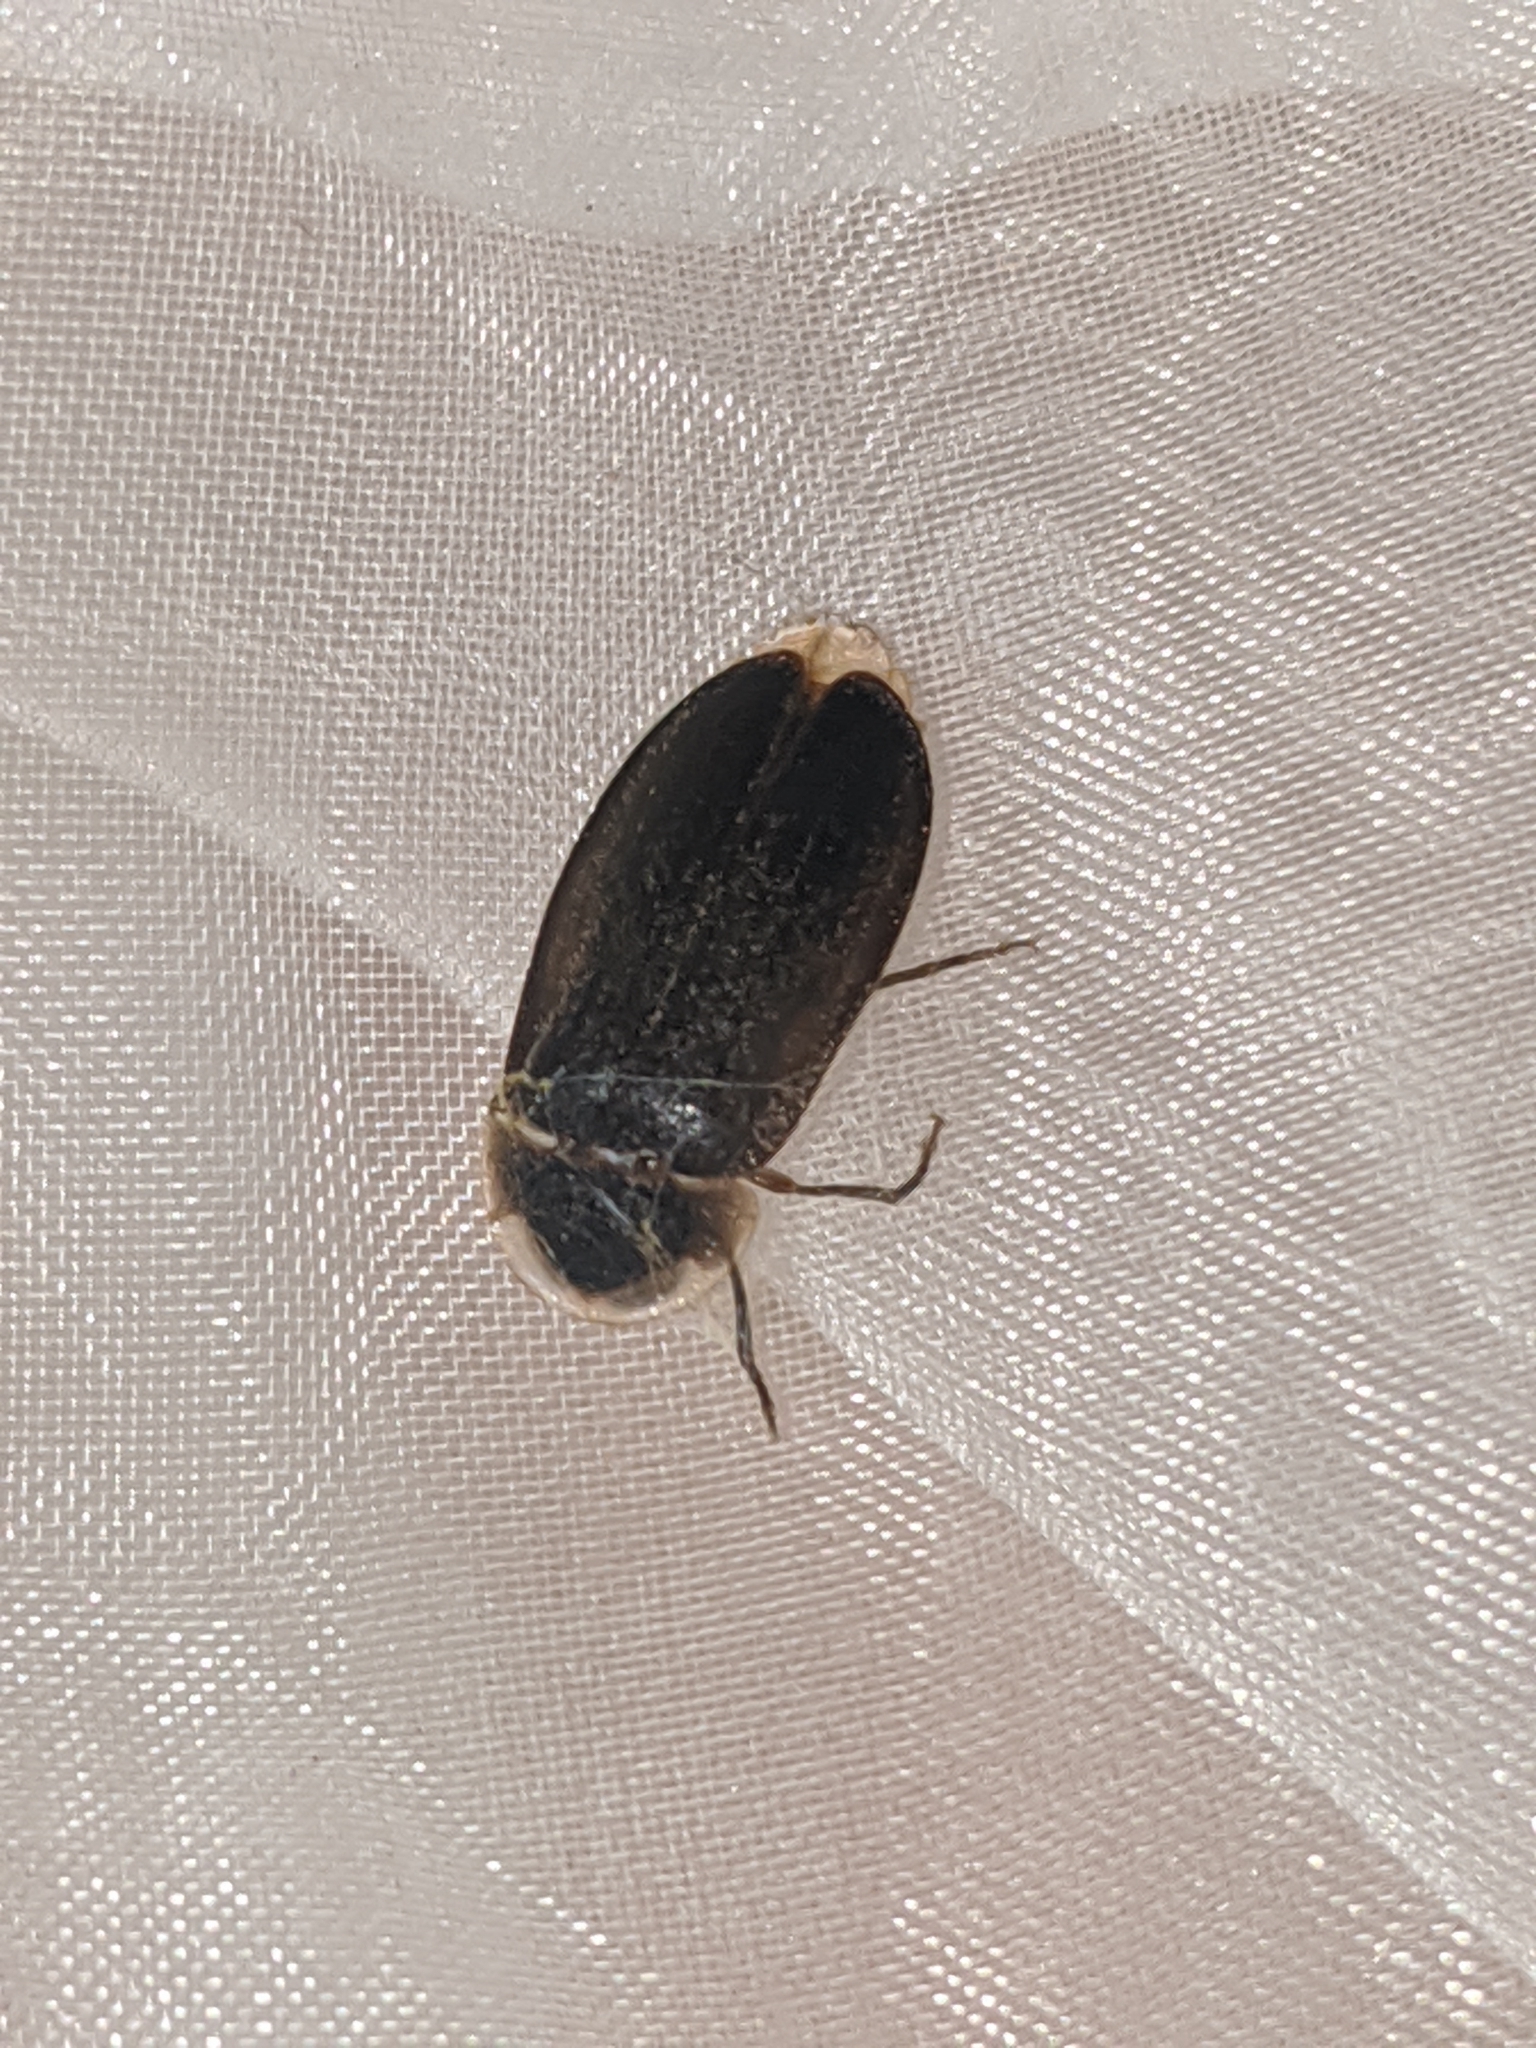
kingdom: Animalia
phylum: Arthropoda
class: Insecta
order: Coleoptera
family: Lampyridae
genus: Lamprigera
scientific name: Lamprigera yunnana
